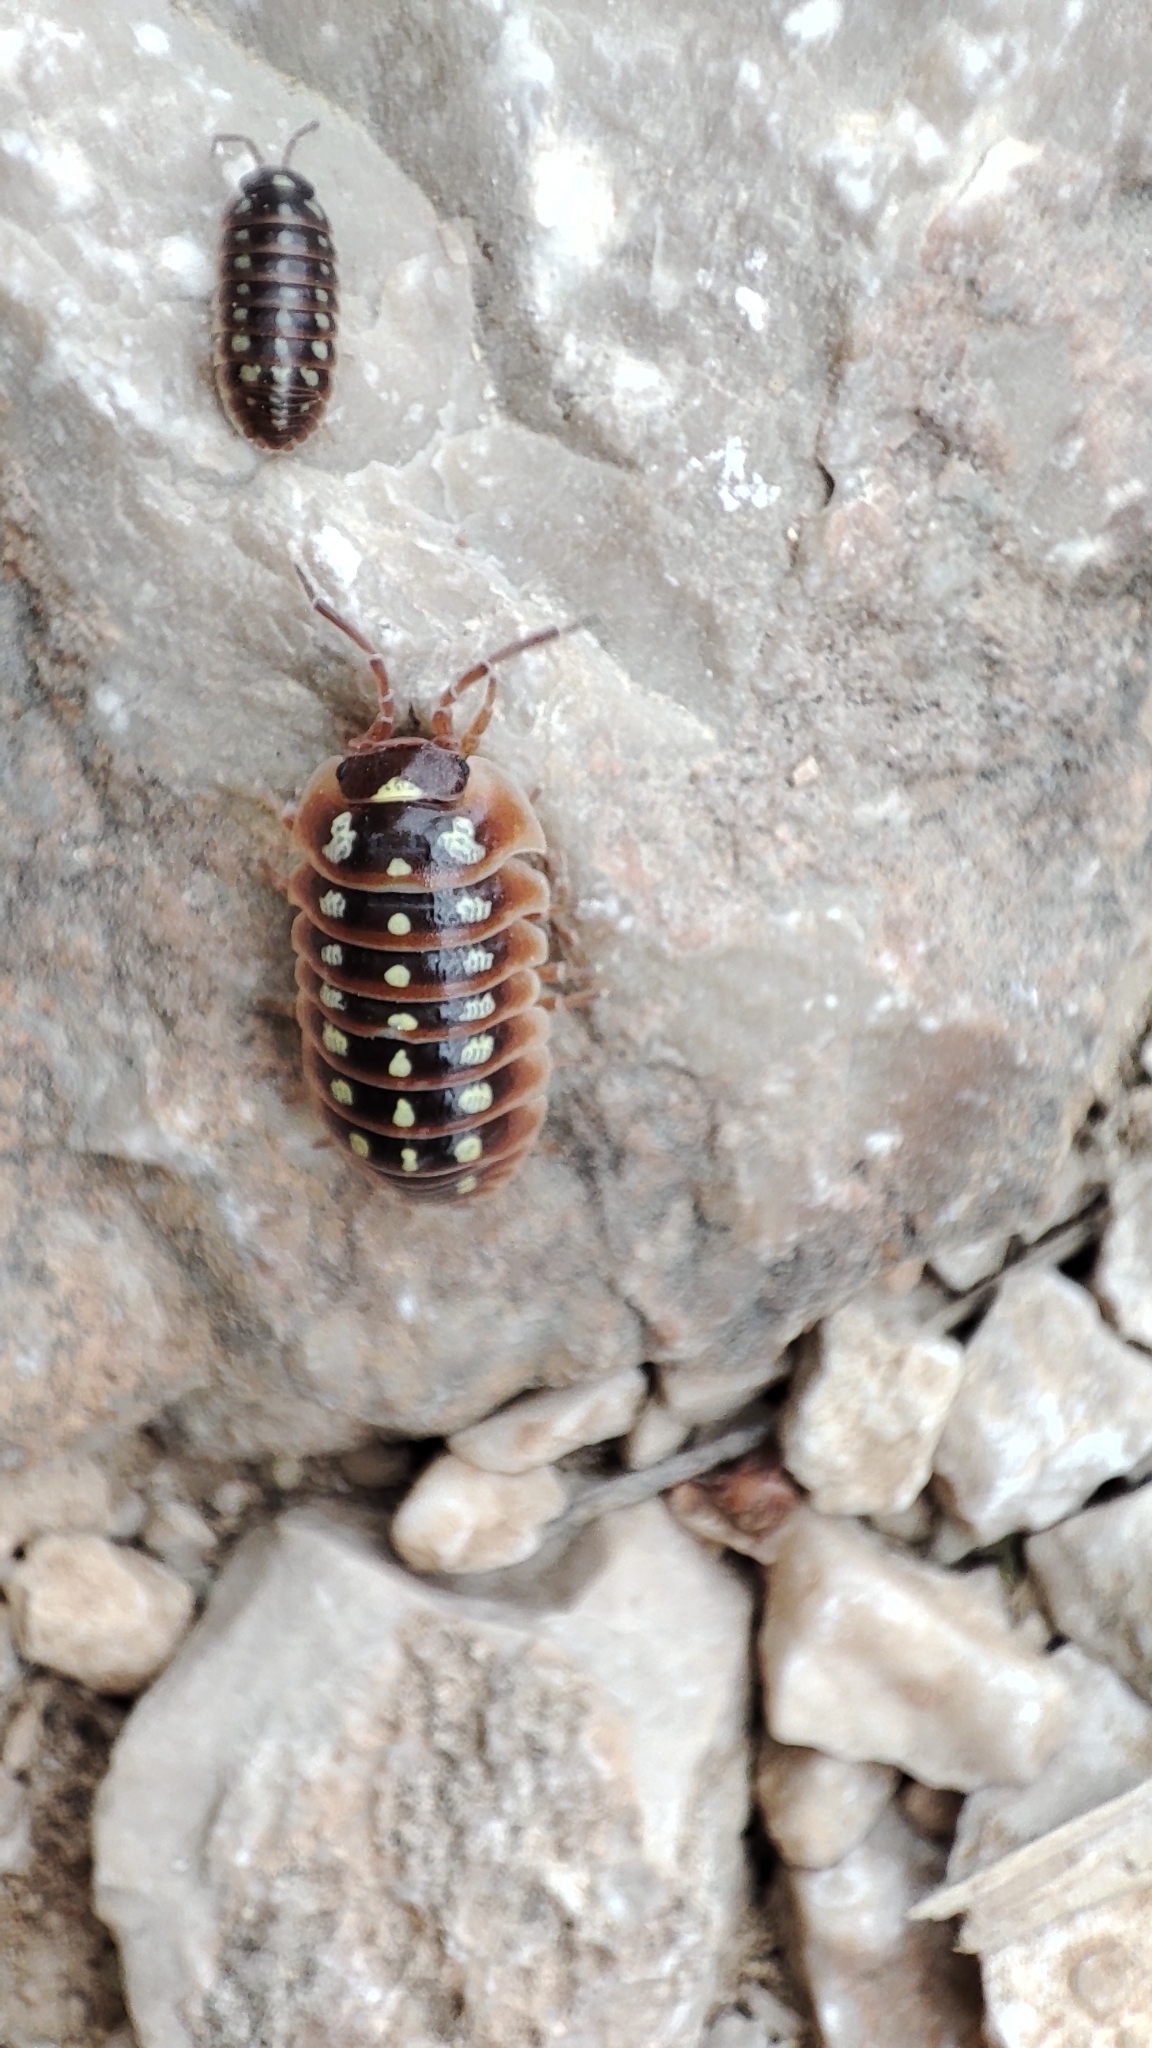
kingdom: Animalia
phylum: Arthropoda
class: Malacostraca
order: Isopoda
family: Armadillidiidae
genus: Armadillidium
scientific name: Armadillidium klugii
